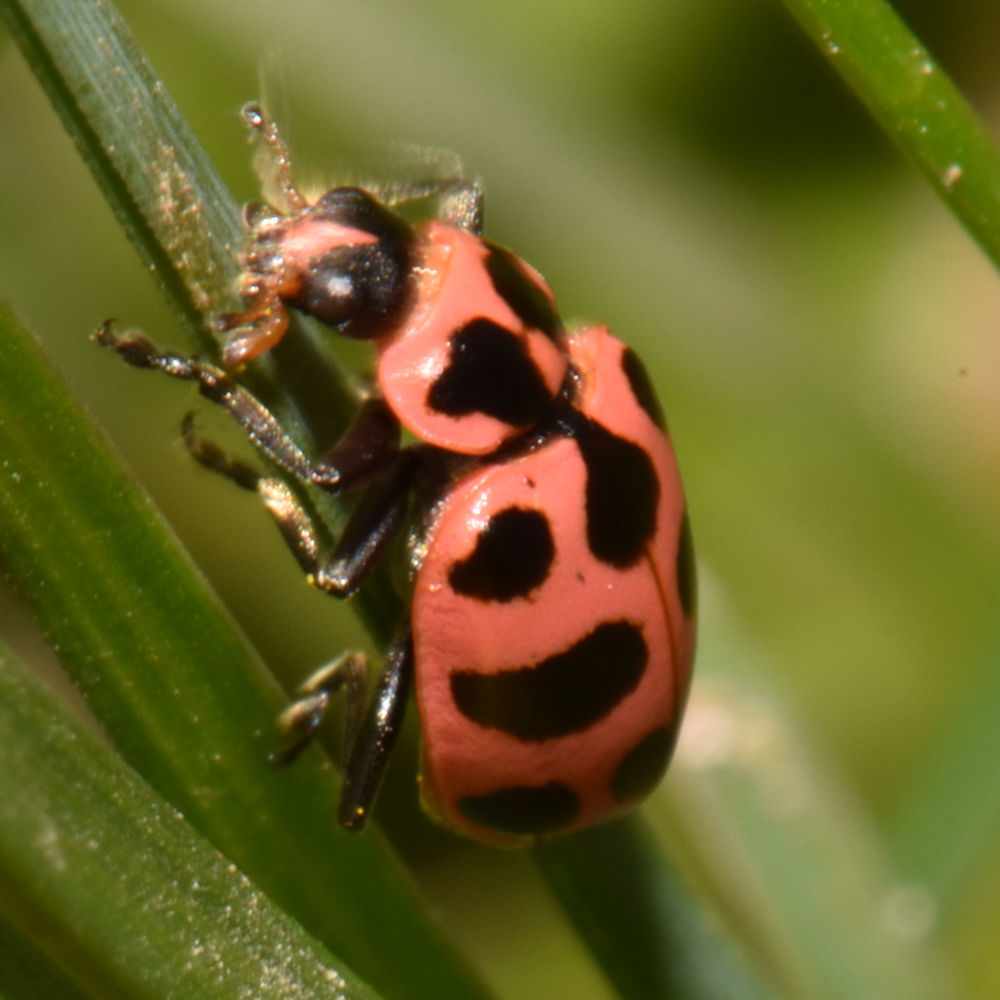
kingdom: Animalia
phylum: Arthropoda
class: Insecta
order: Coleoptera
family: Coccinellidae
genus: Coleomegilla
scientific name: Coleomegilla maculata
